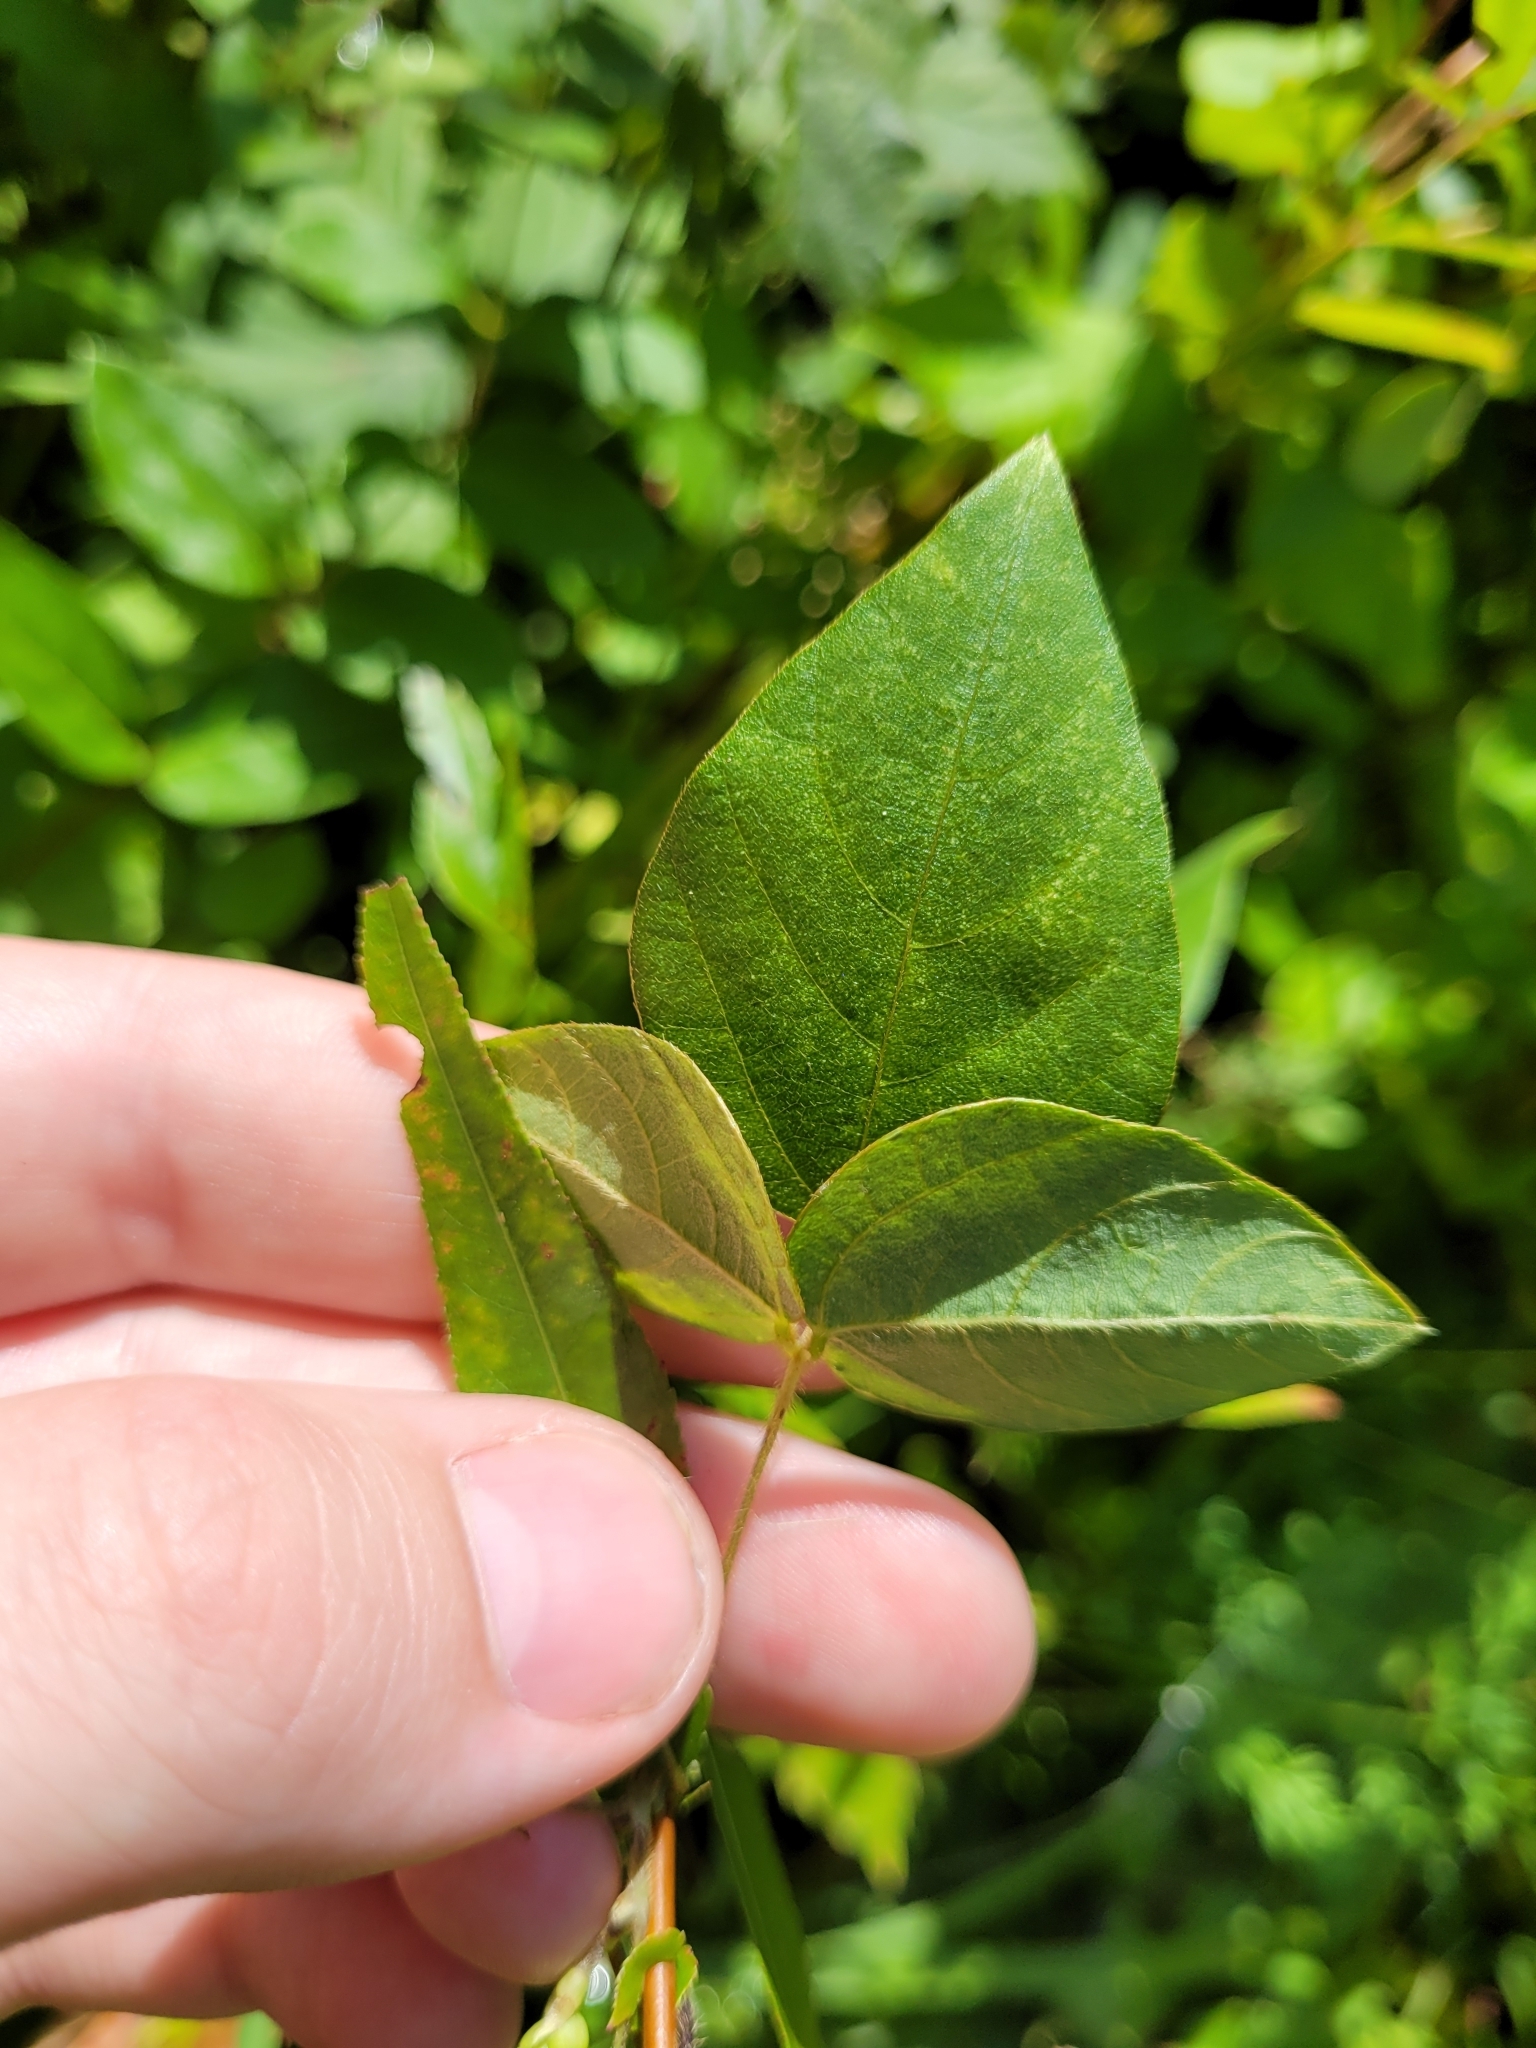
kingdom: Plantae
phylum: Tracheophyta
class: Magnoliopsida
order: Fabales
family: Fabaceae
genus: Amphicarpaea
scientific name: Amphicarpaea bracteata
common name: American hog peanut
